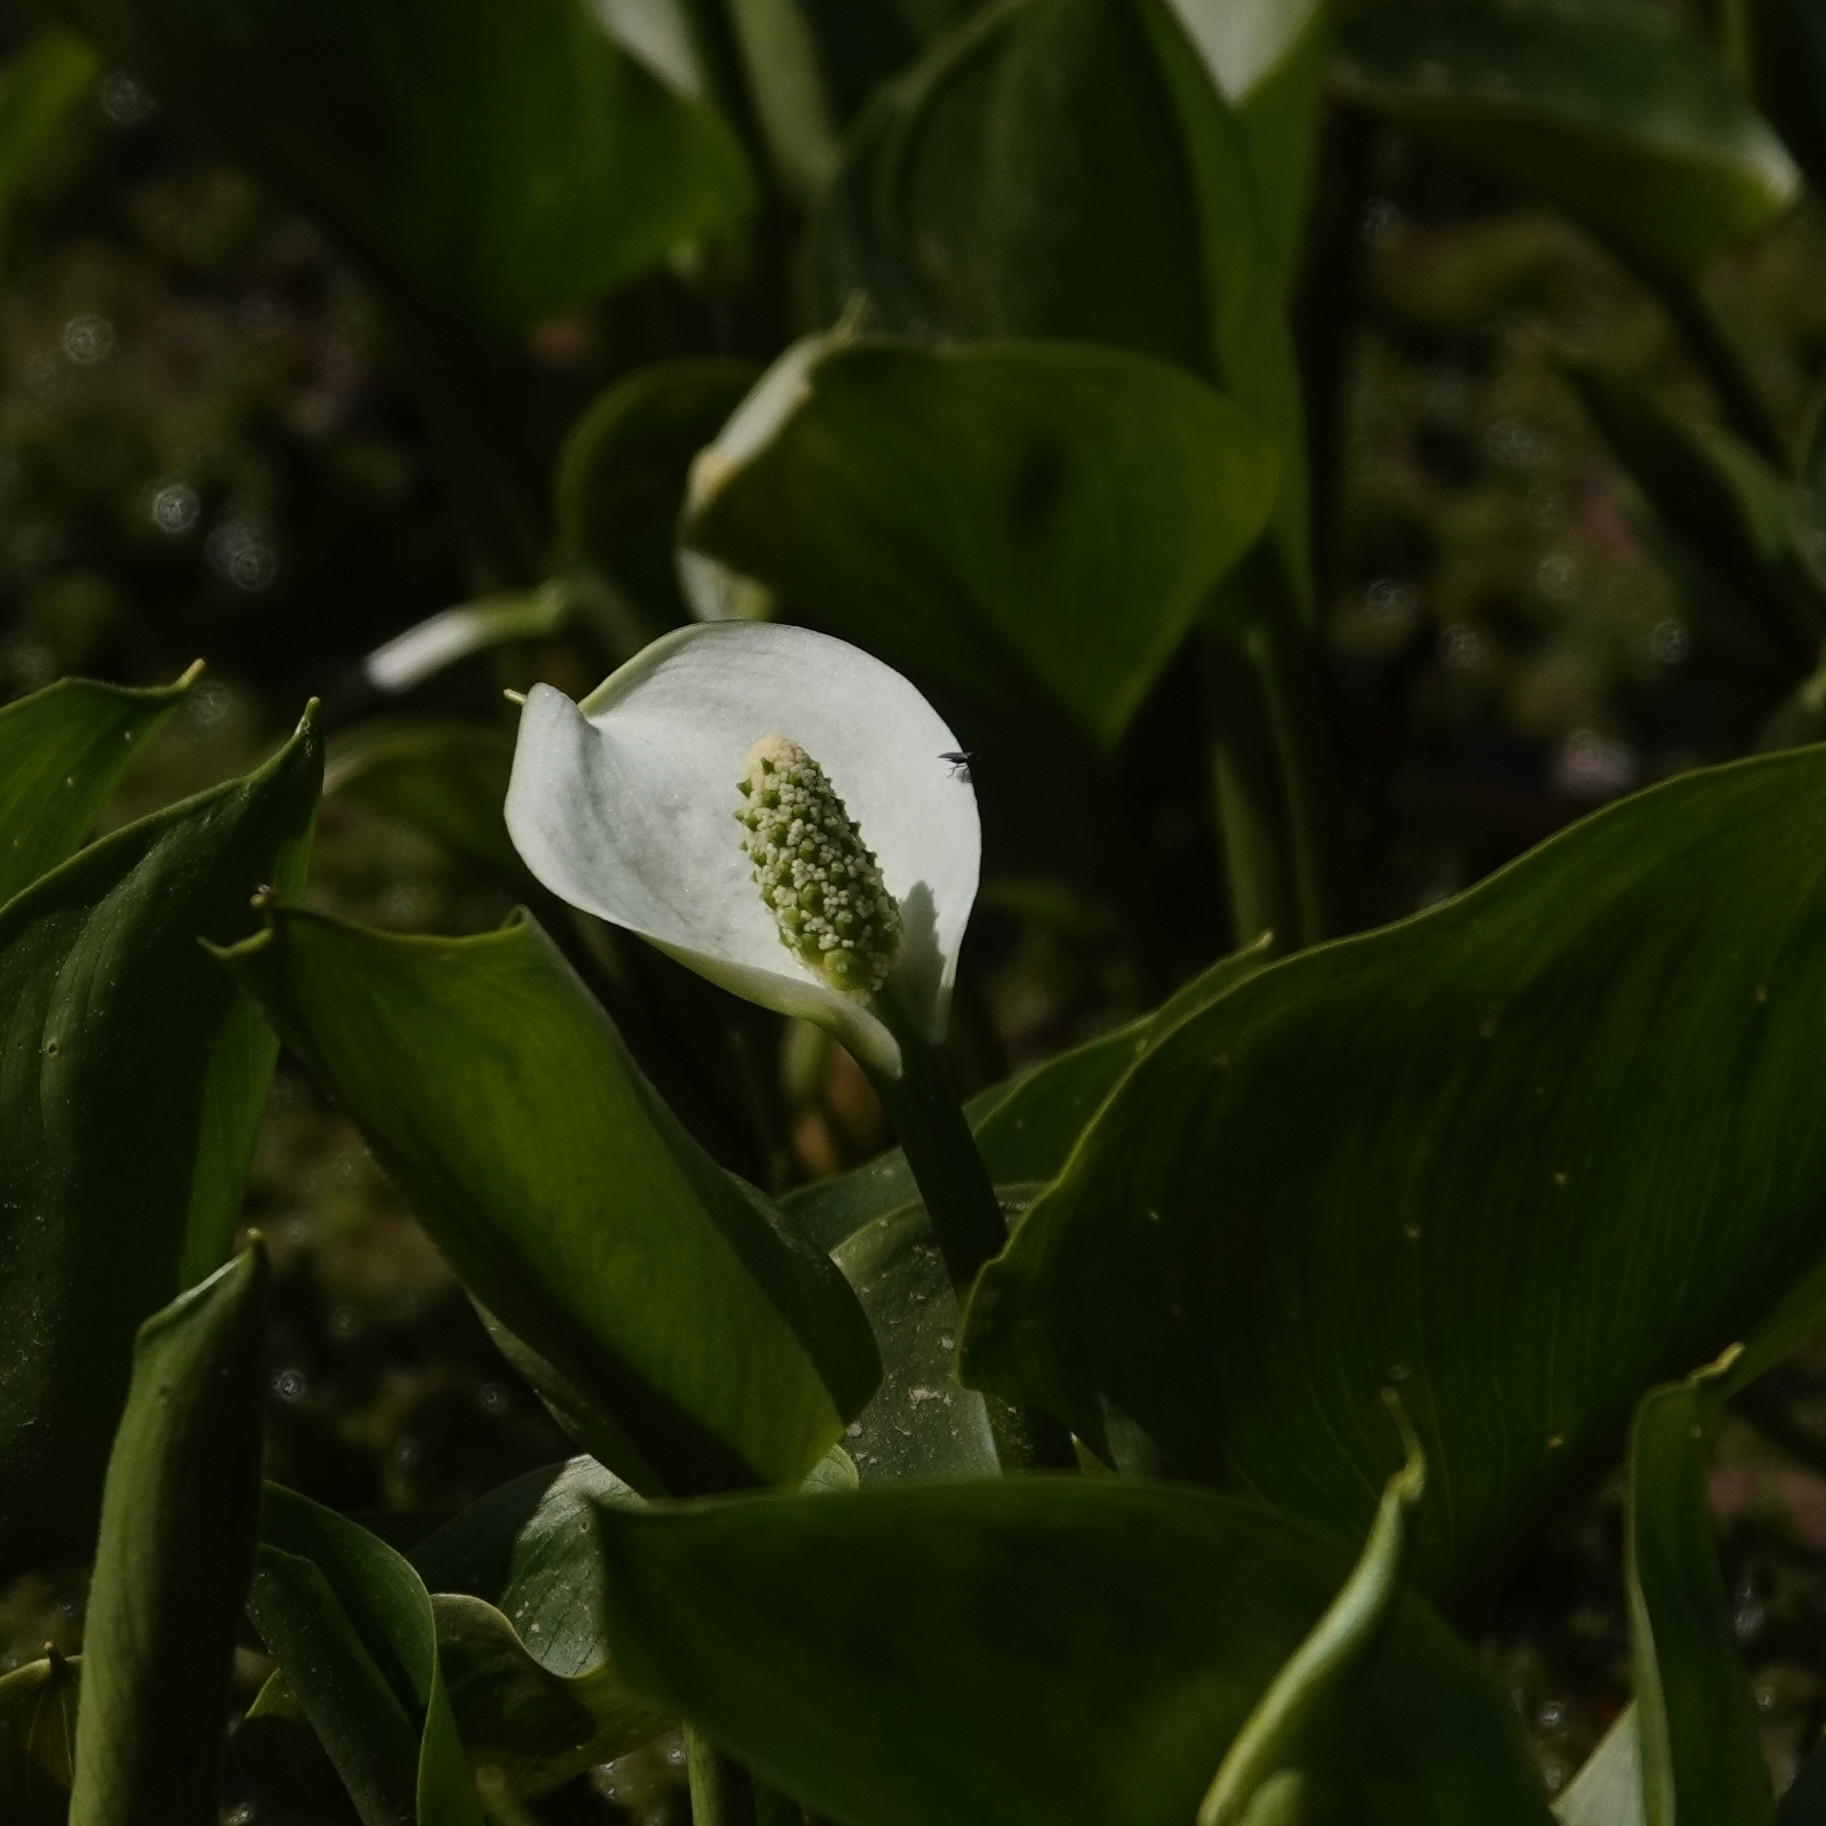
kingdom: Plantae
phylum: Tracheophyta
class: Liliopsida
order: Alismatales
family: Araceae
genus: Calla
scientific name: Calla palustris
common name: Bog arum
